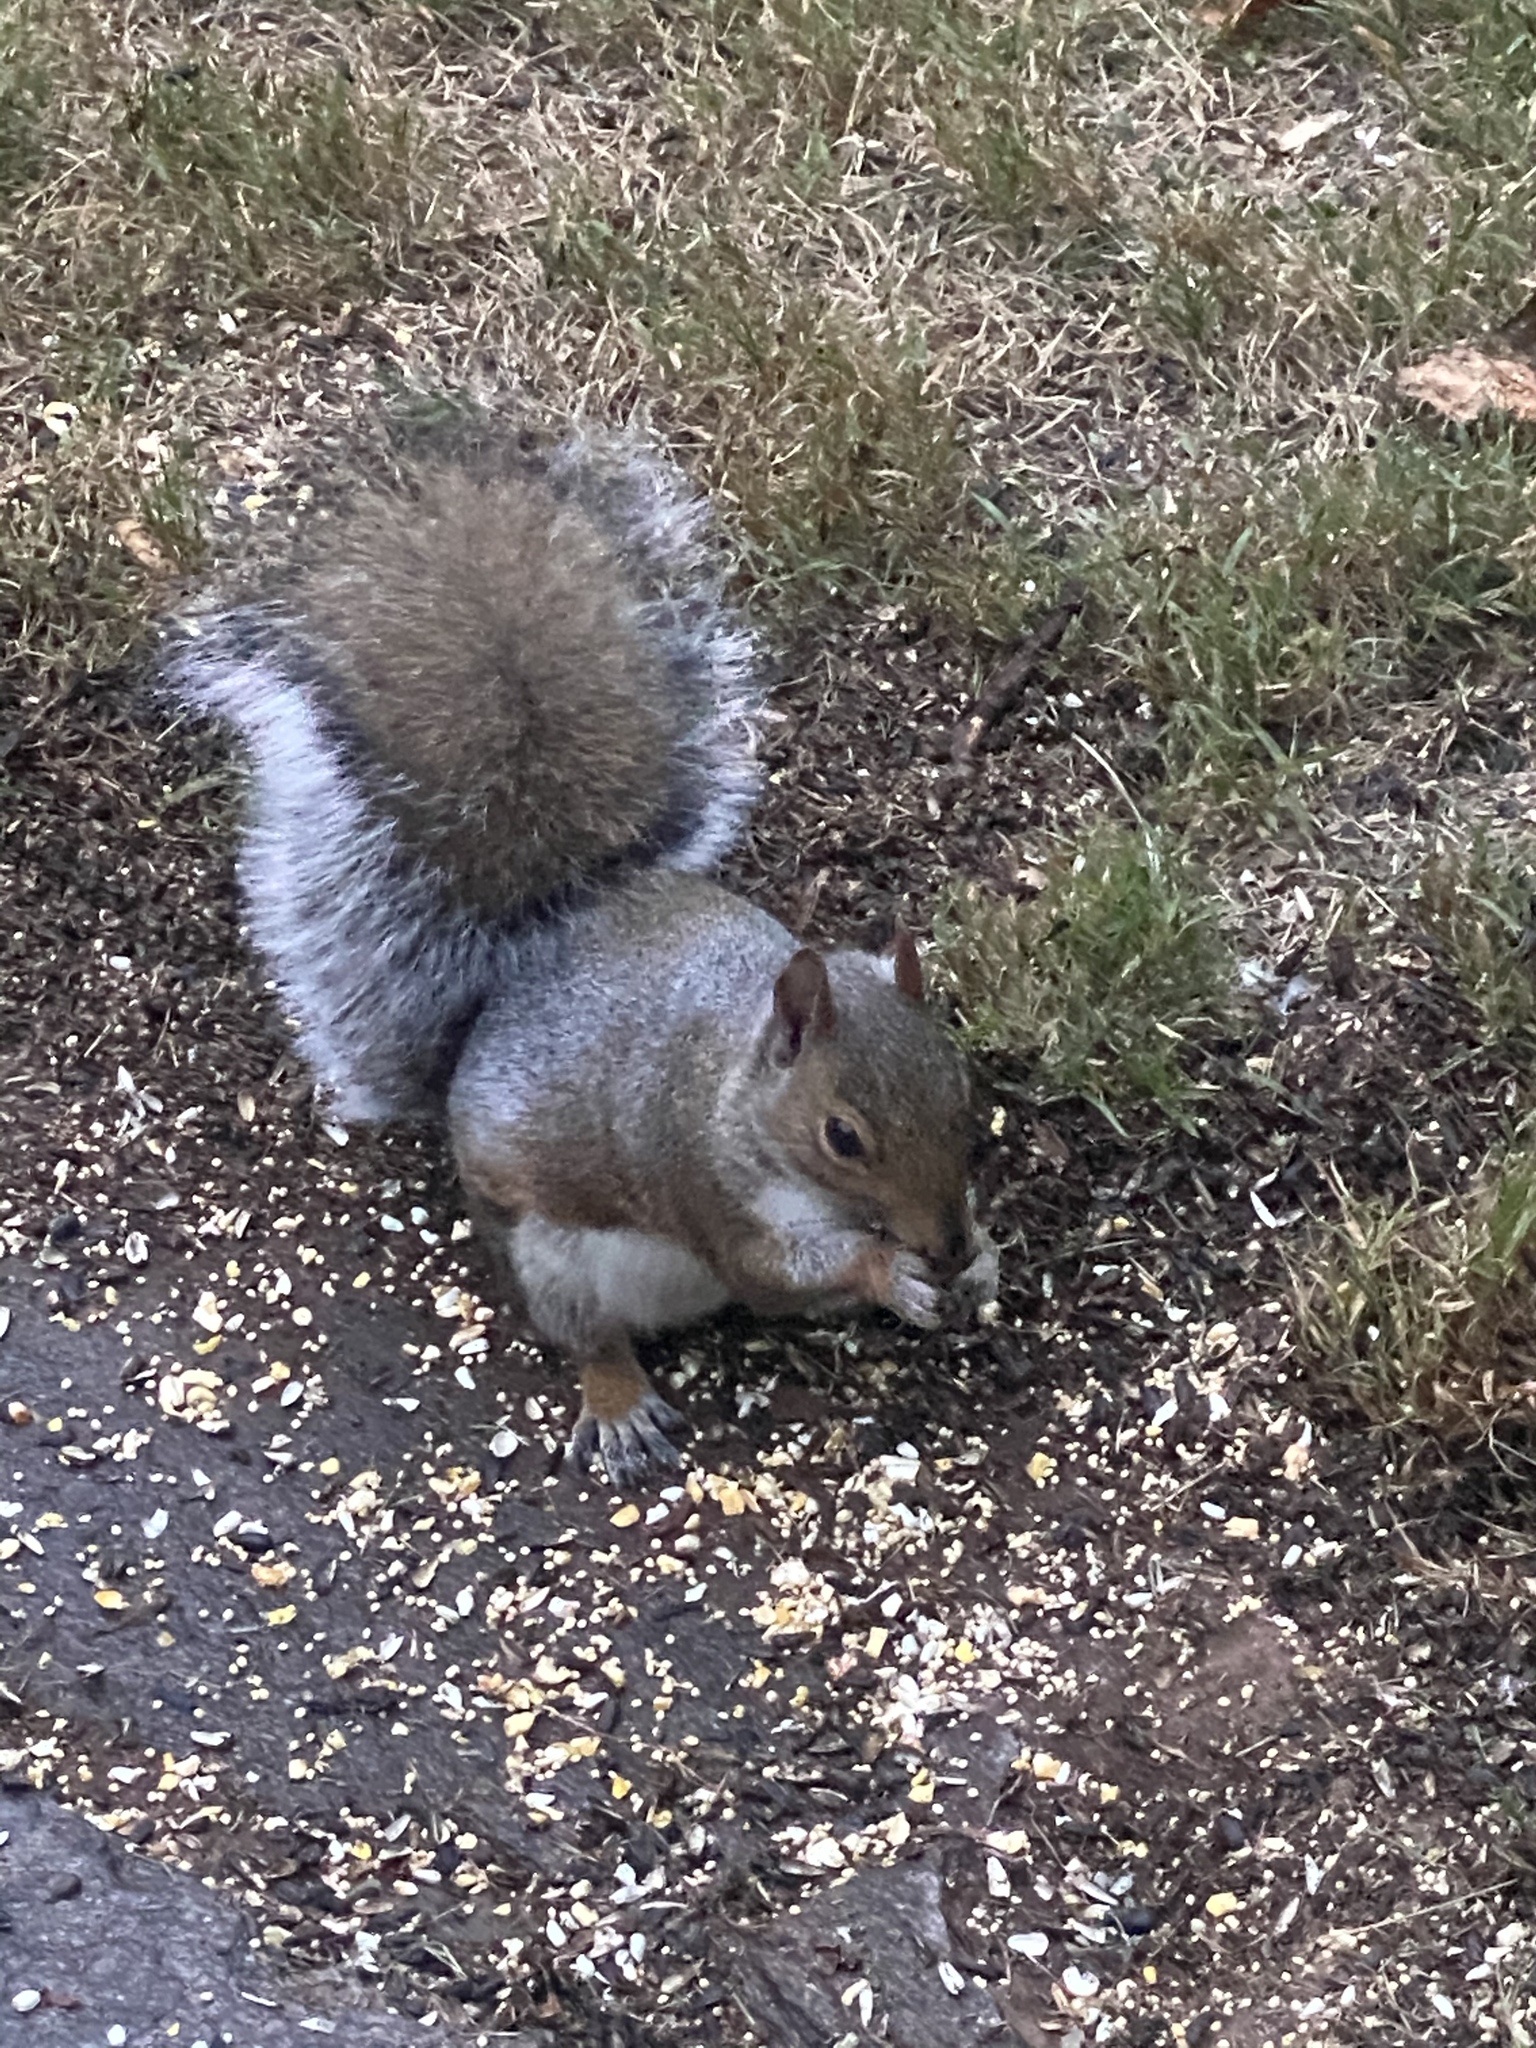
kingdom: Animalia
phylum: Chordata
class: Mammalia
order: Rodentia
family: Sciuridae
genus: Sciurus
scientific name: Sciurus carolinensis
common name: Eastern gray squirrel
